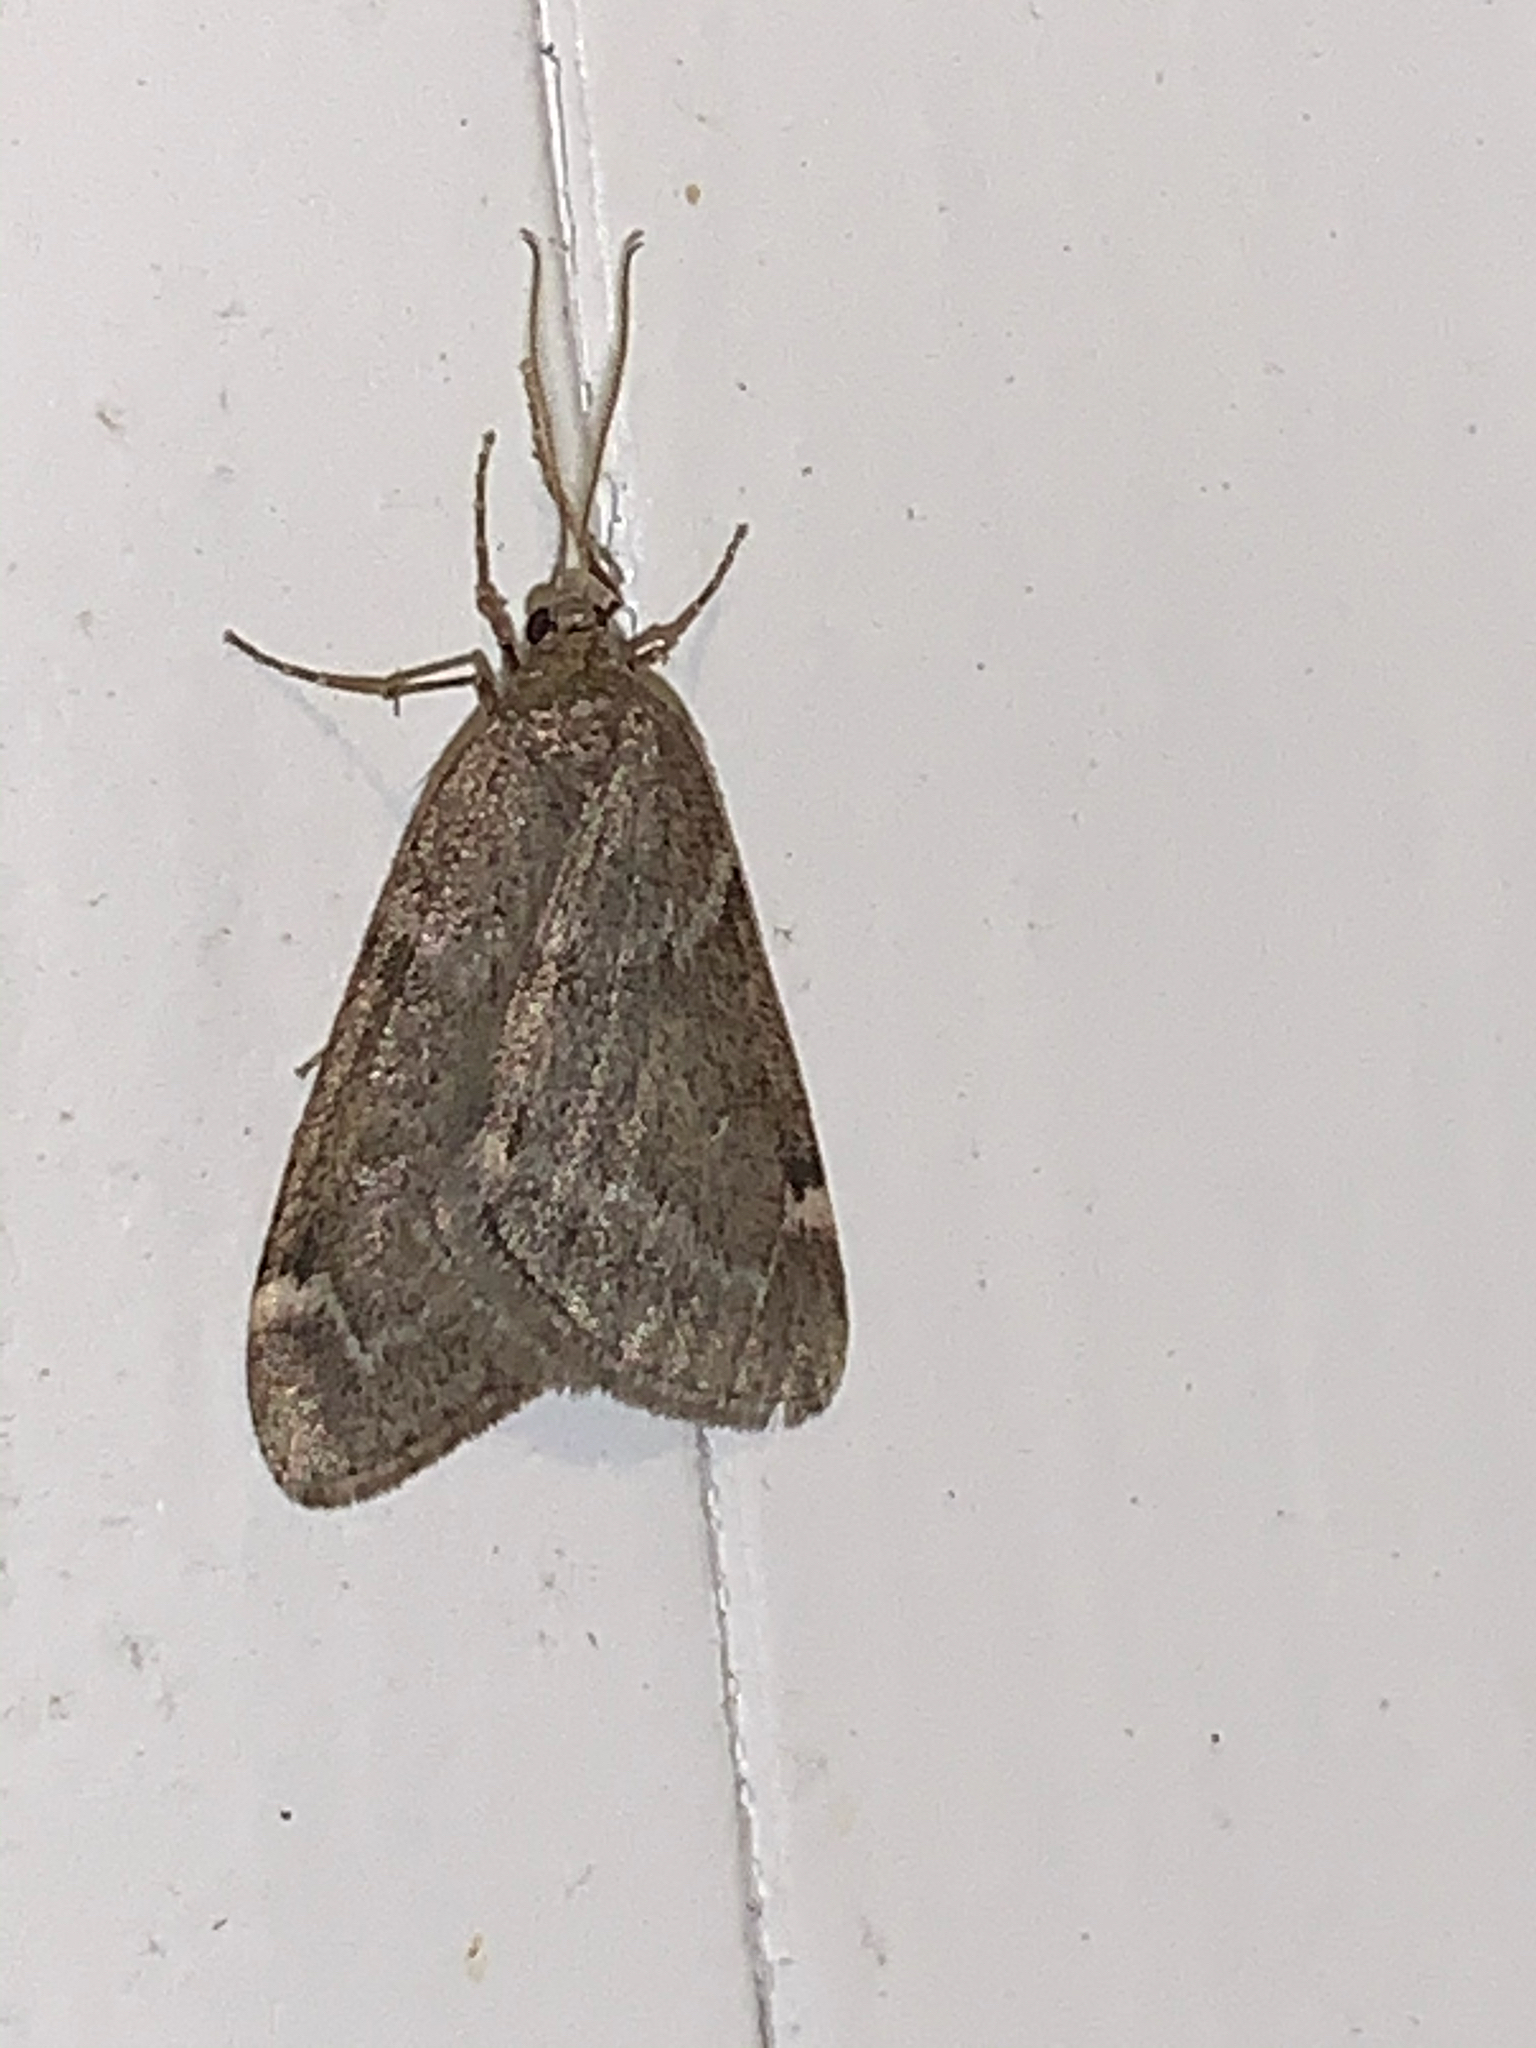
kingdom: Animalia
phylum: Arthropoda
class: Insecta
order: Lepidoptera
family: Geometridae
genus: Alsophila
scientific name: Alsophila pometaria
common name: Fall cankerworm
